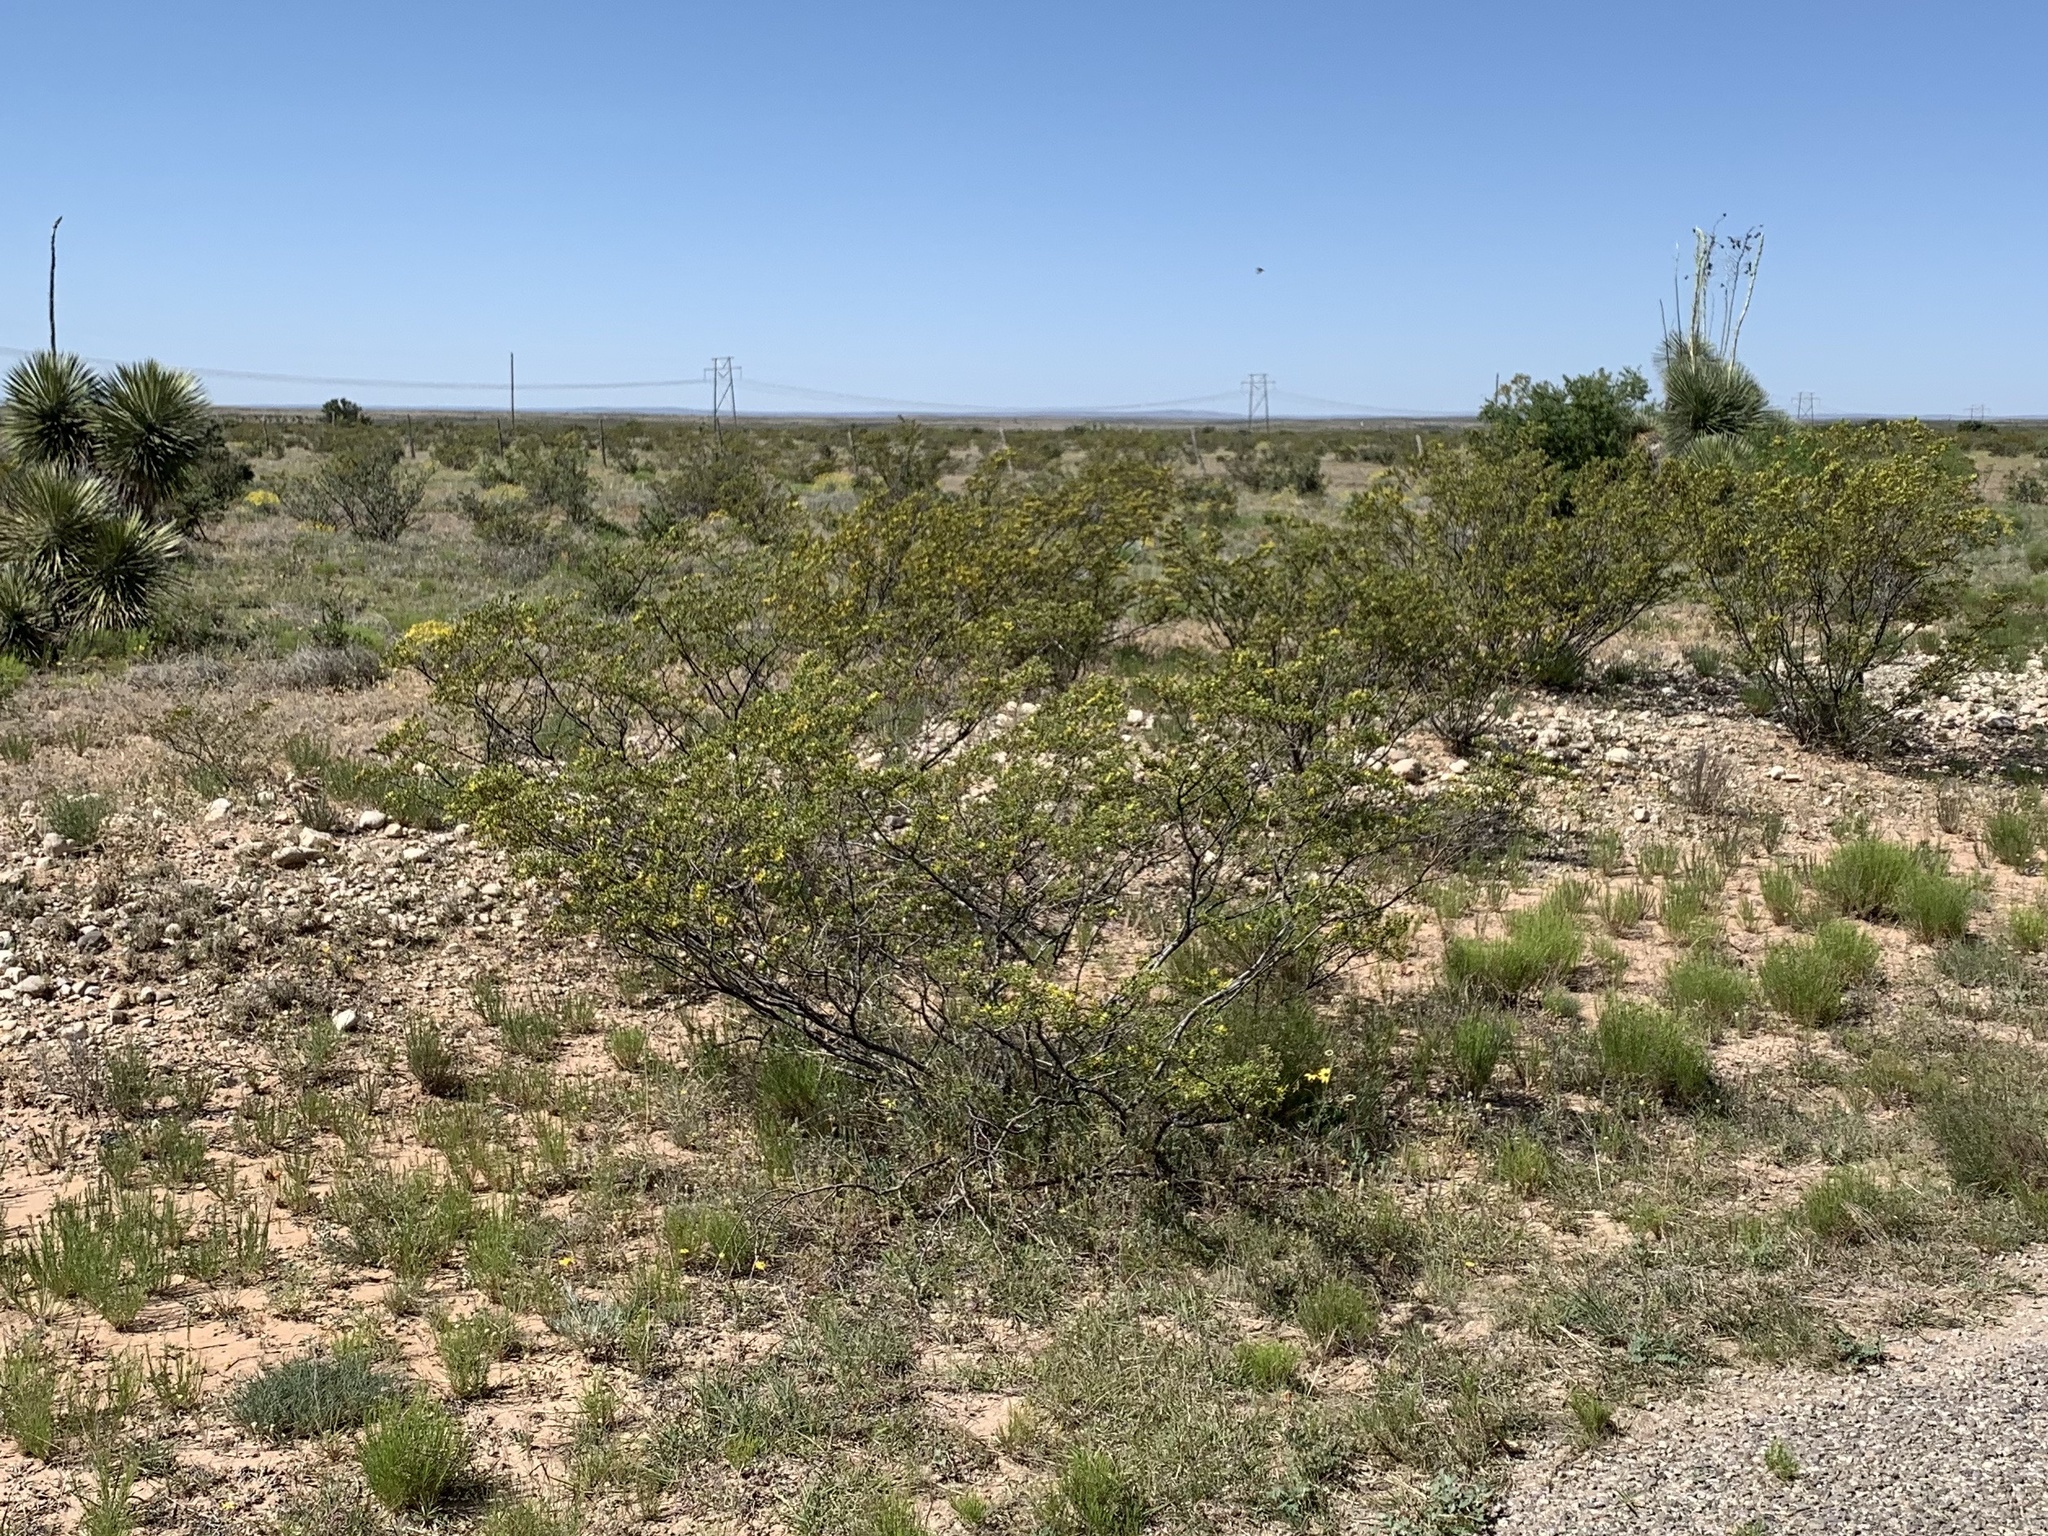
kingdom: Plantae
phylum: Tracheophyta
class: Magnoliopsida
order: Zygophyllales
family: Zygophyllaceae
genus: Larrea
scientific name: Larrea tridentata
